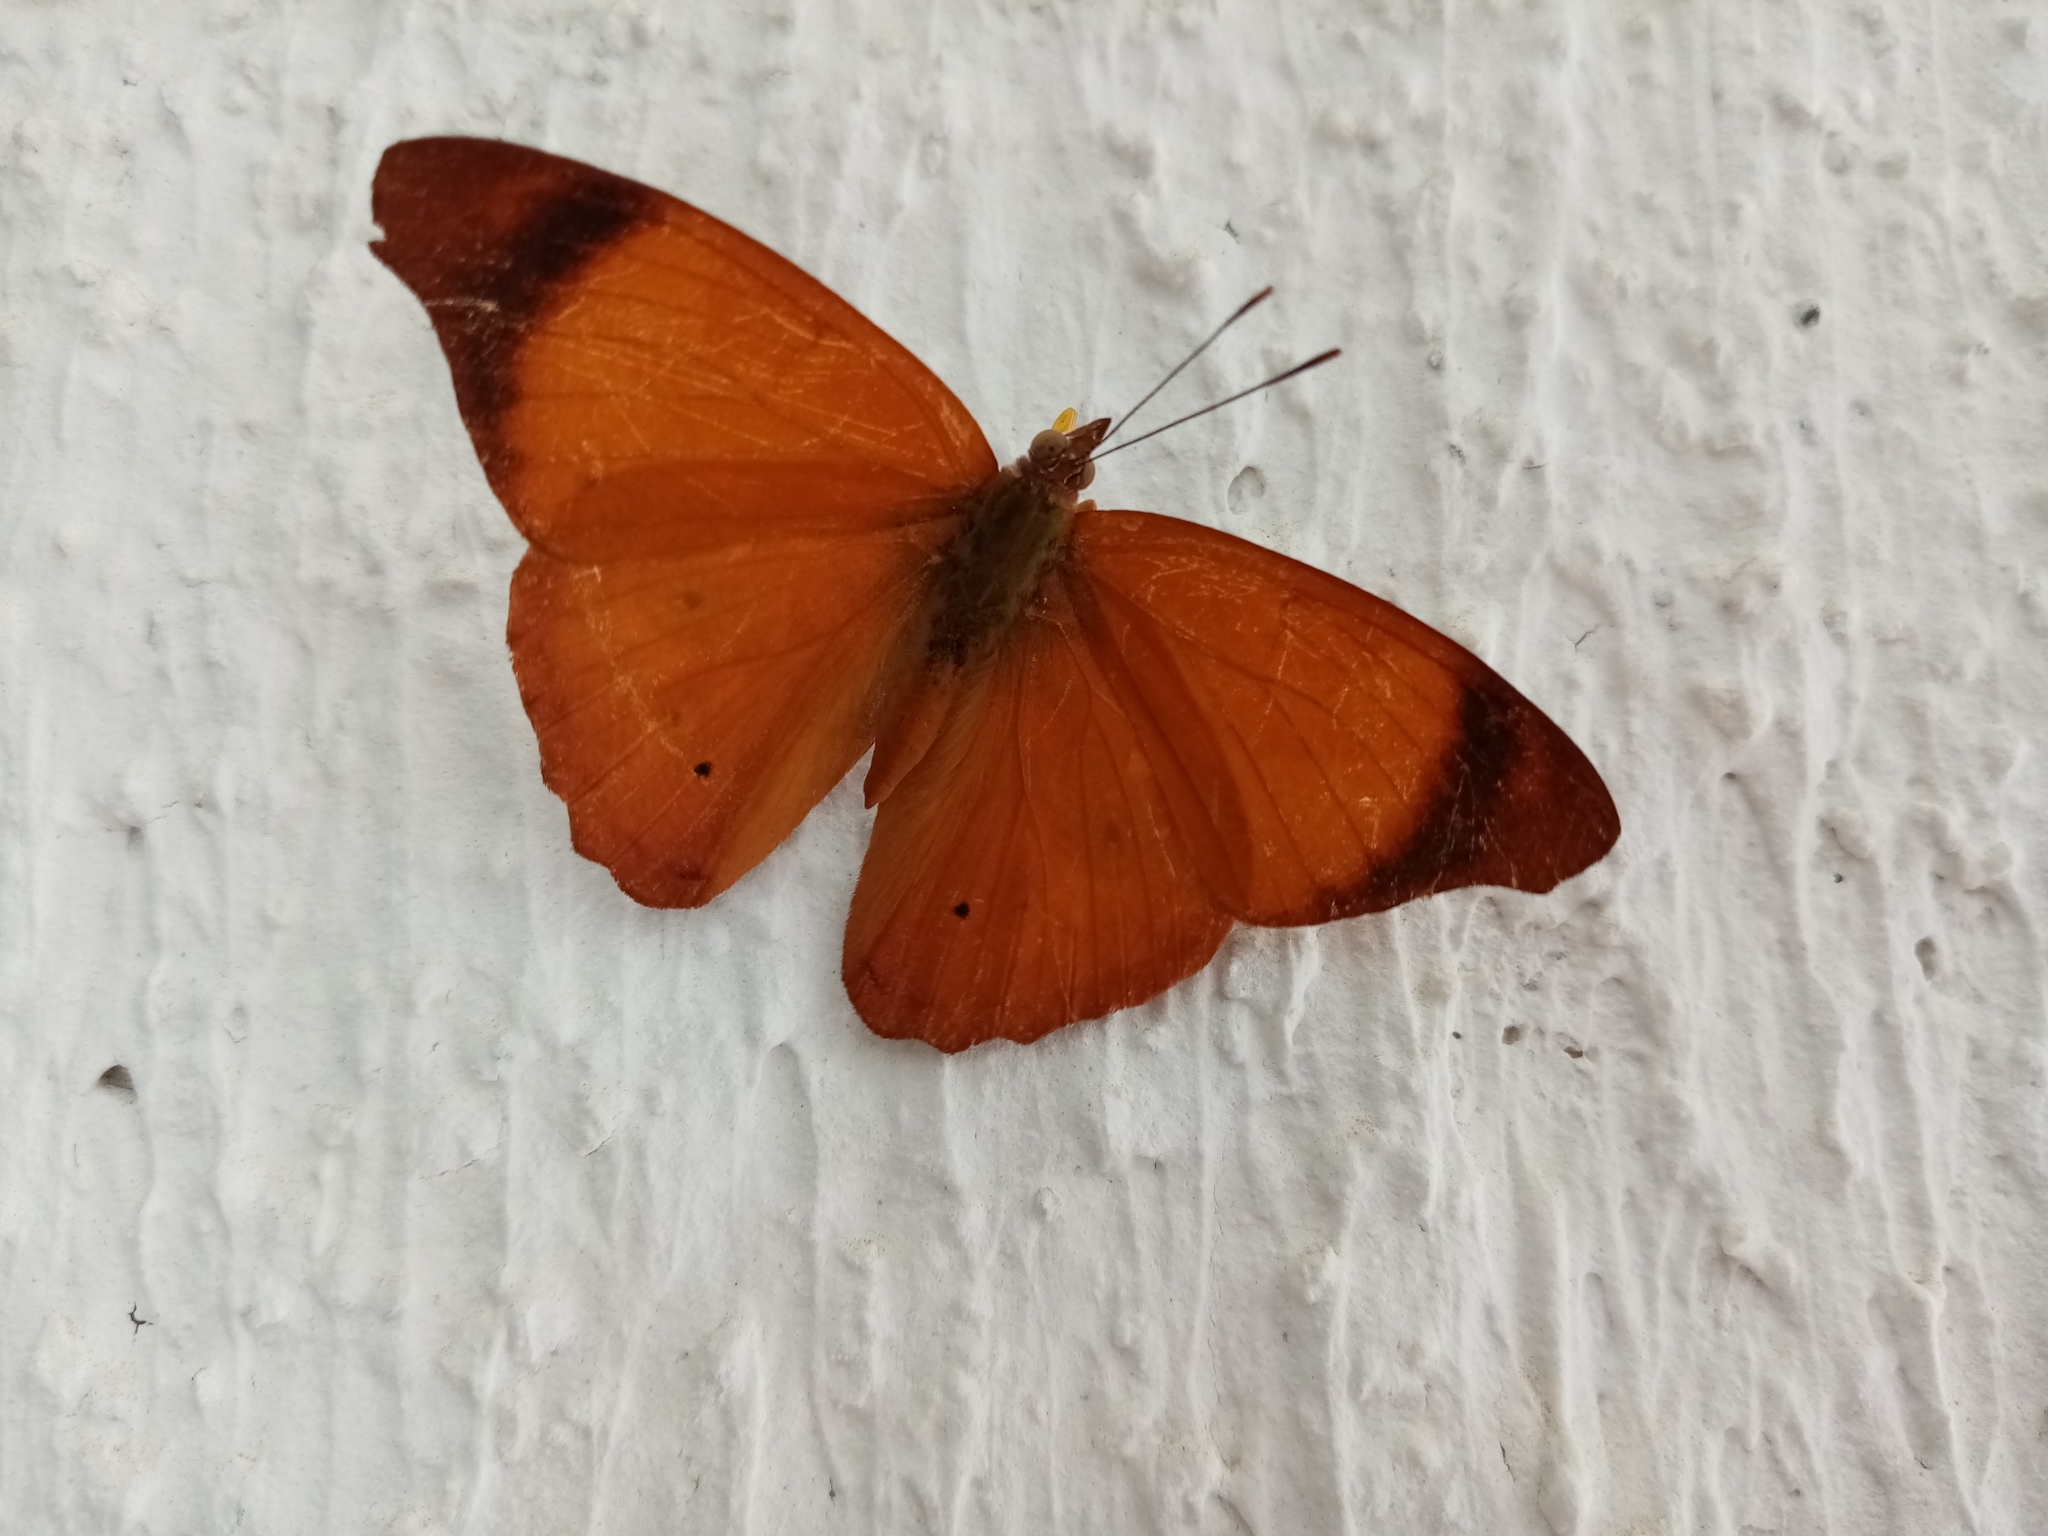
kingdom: Animalia
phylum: Arthropoda
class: Insecta
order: Lepidoptera
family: Nymphalidae
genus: Temenis
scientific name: Temenis laothoe
